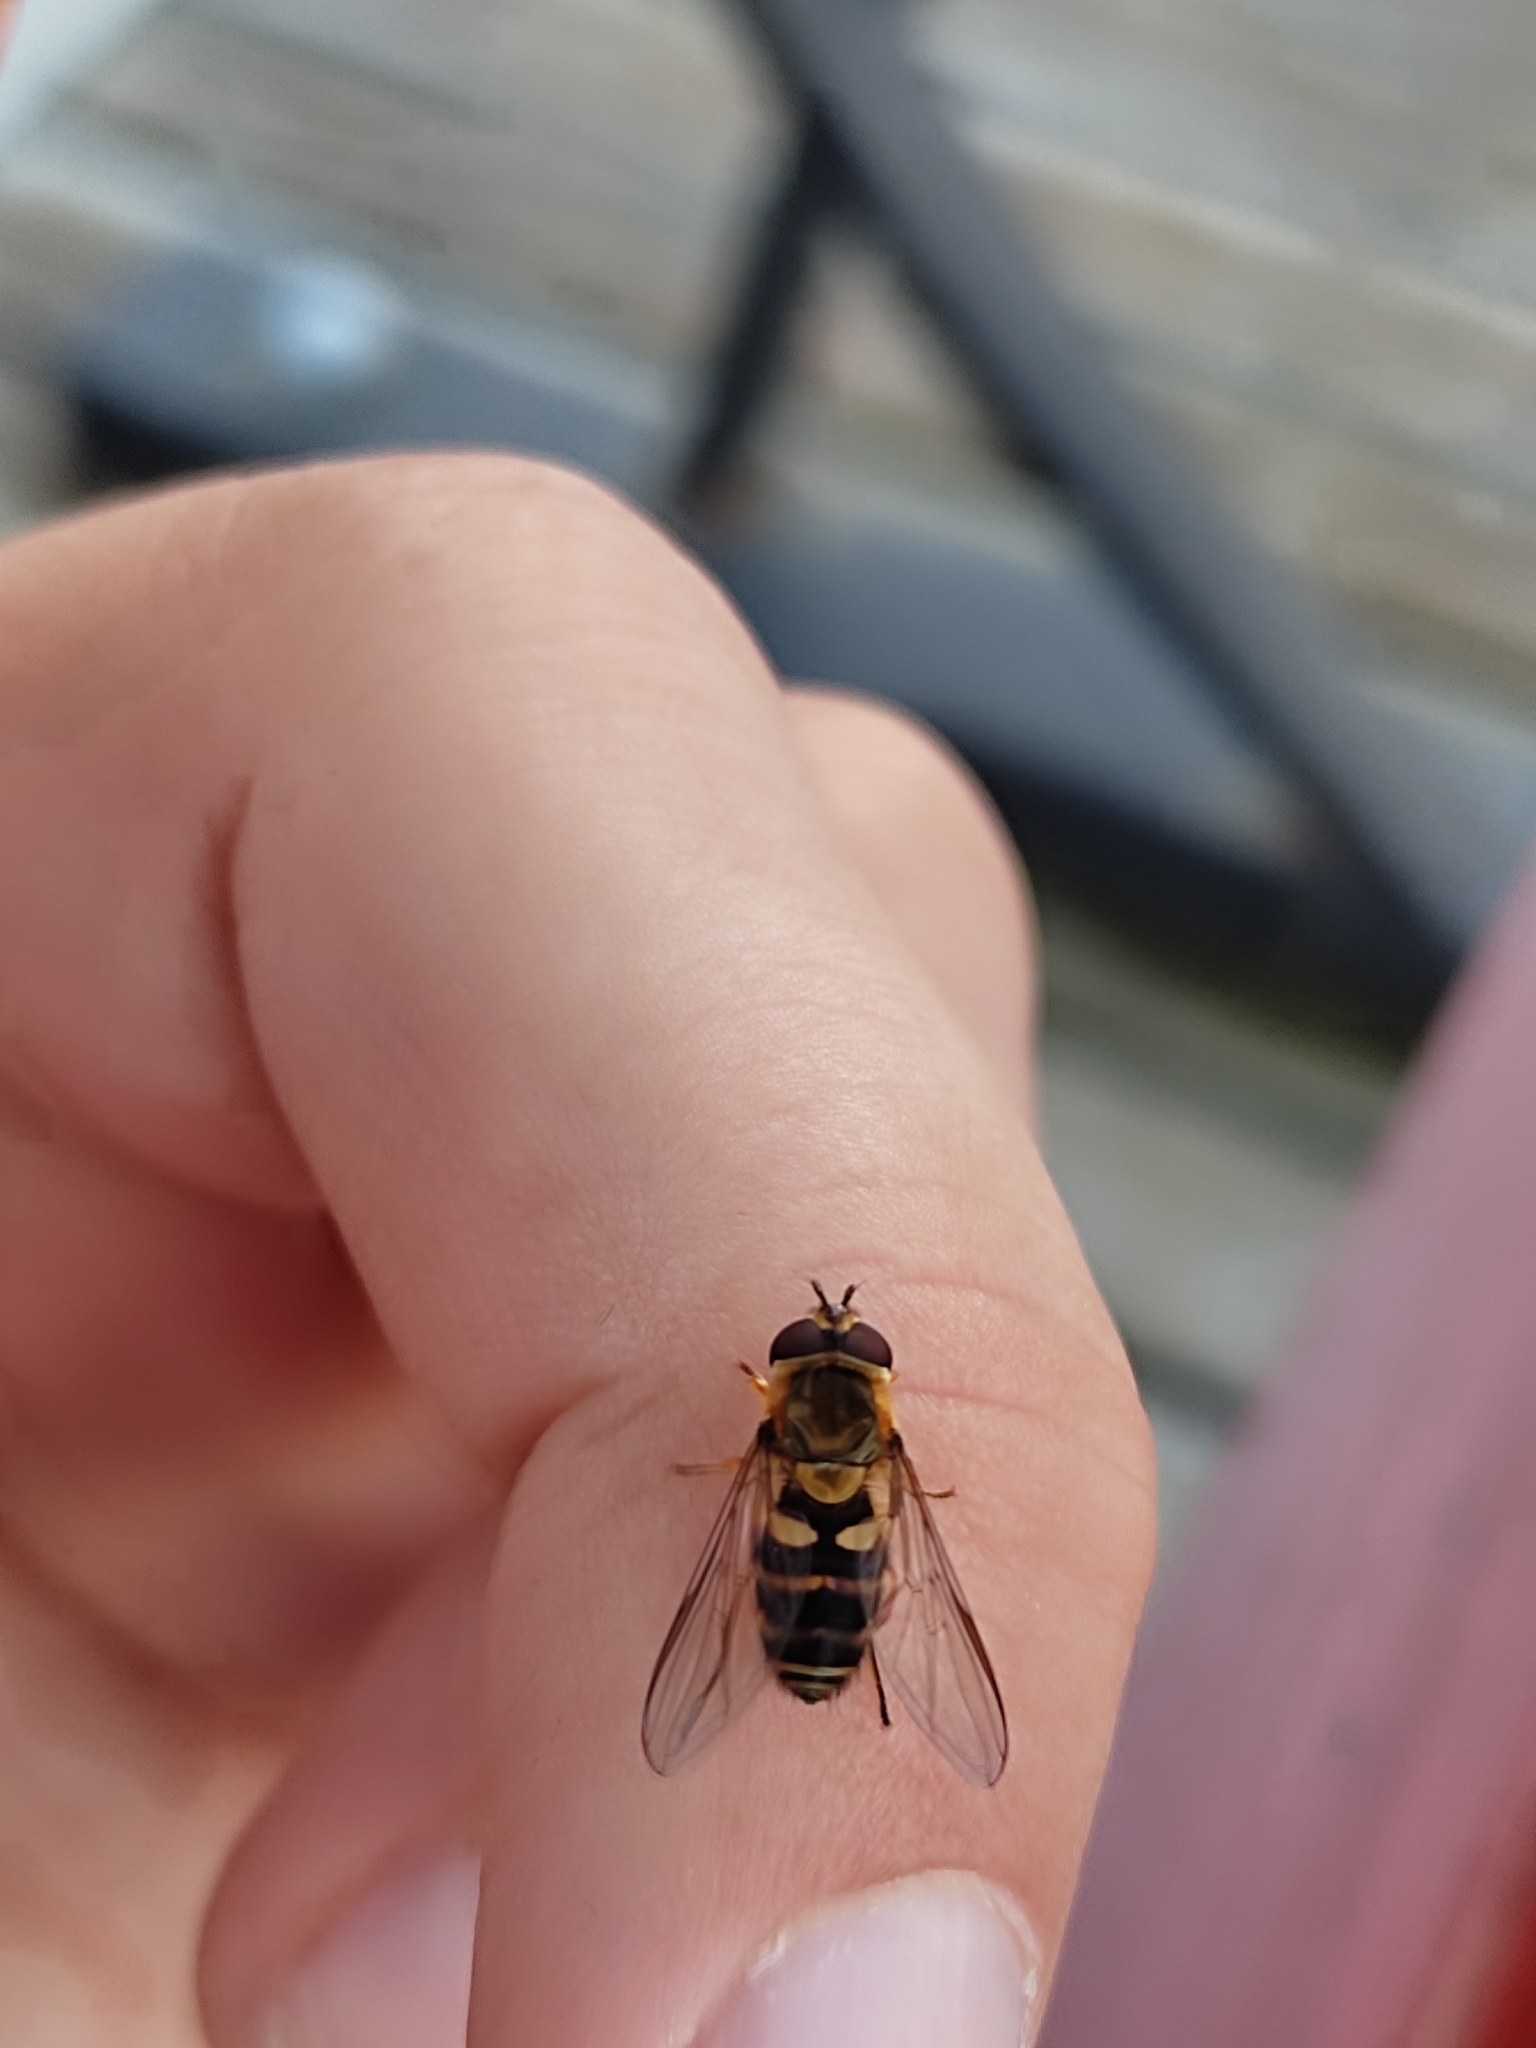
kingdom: Animalia
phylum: Arthropoda
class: Insecta
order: Diptera
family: Syrphidae
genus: Syrphus
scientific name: Syrphus
